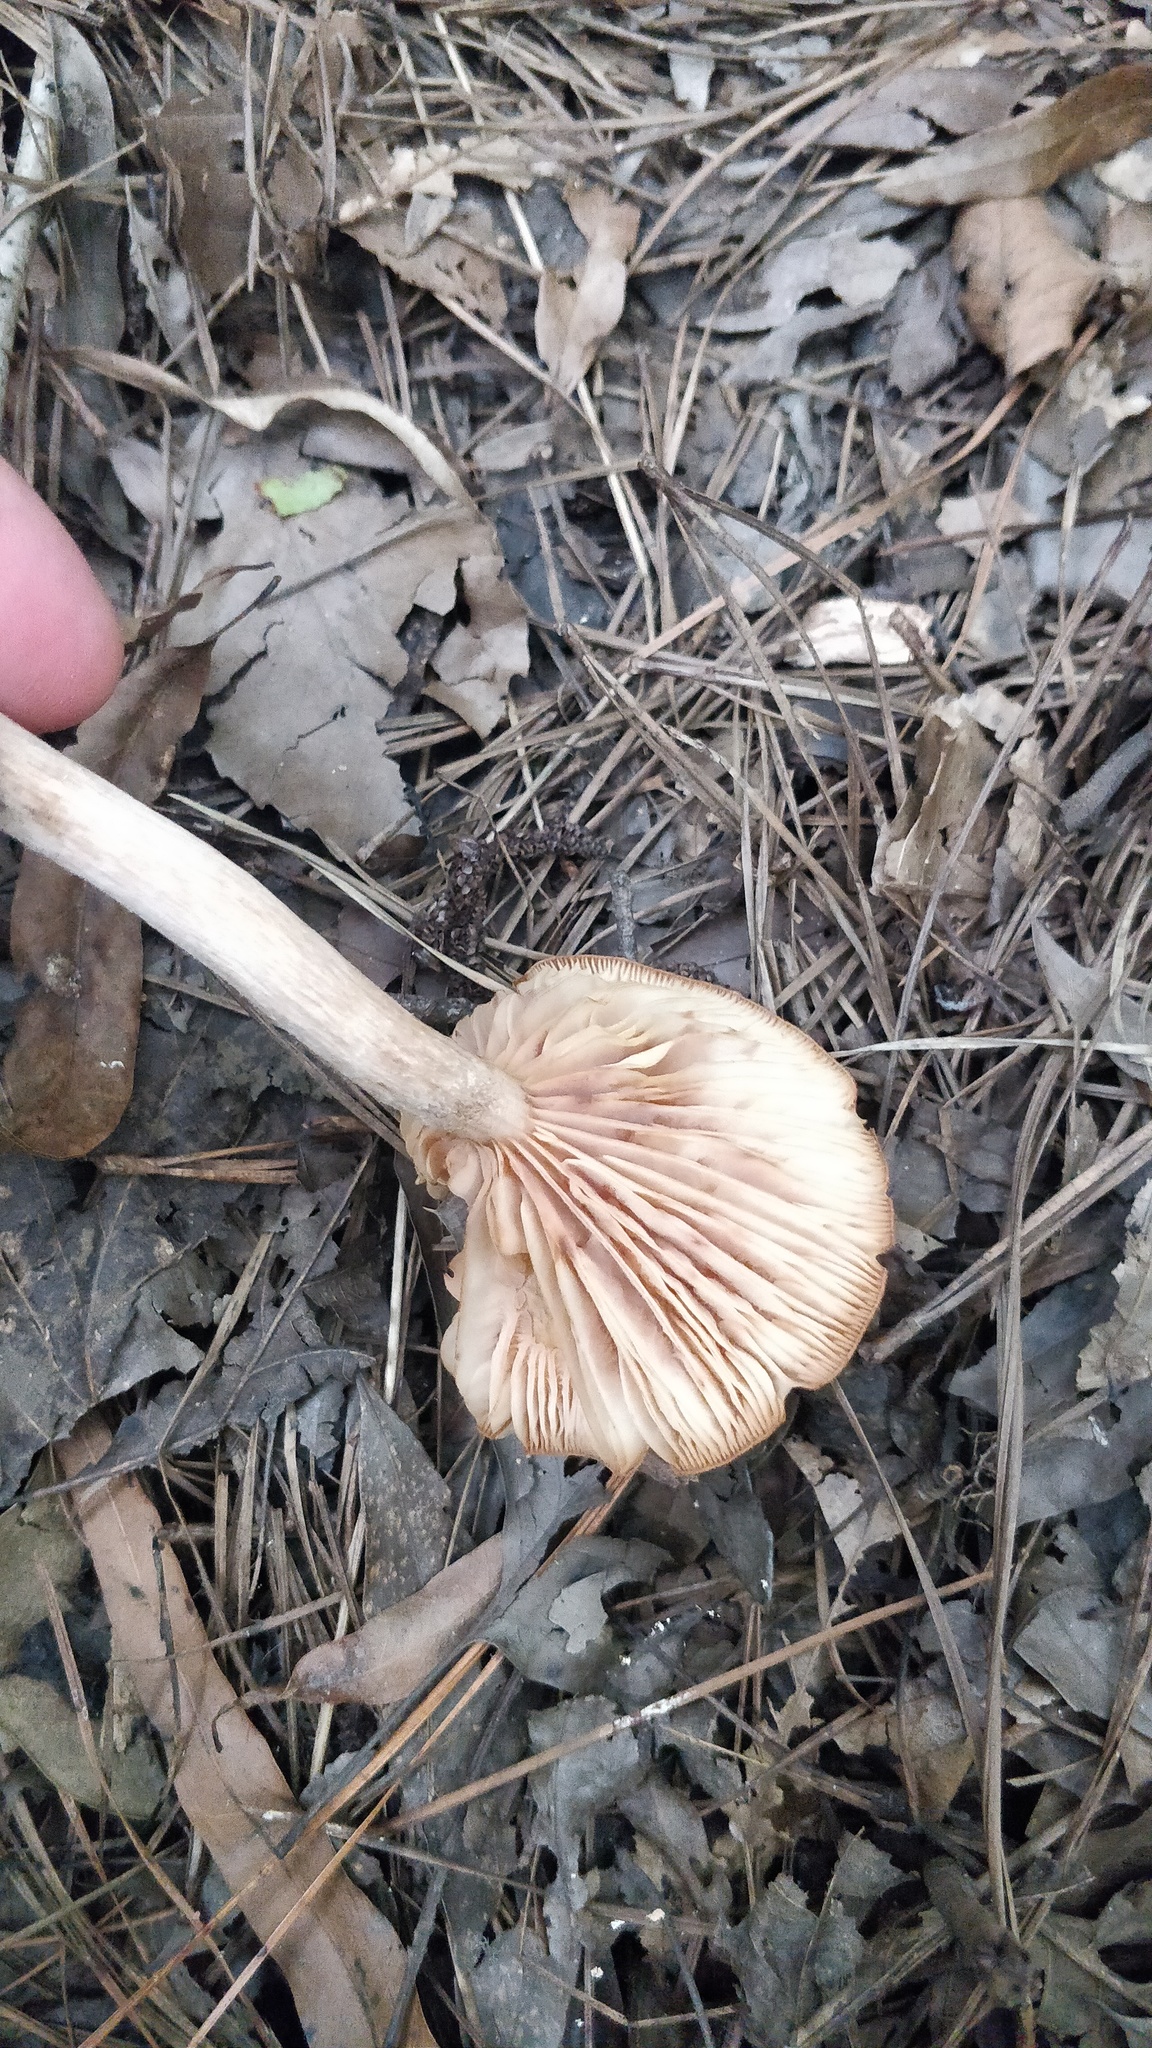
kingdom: Fungi
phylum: Basidiomycota
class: Agaricomycetes
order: Agaricales
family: Physalacriaceae
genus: Desarmillaria
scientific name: Desarmillaria caespitosa
